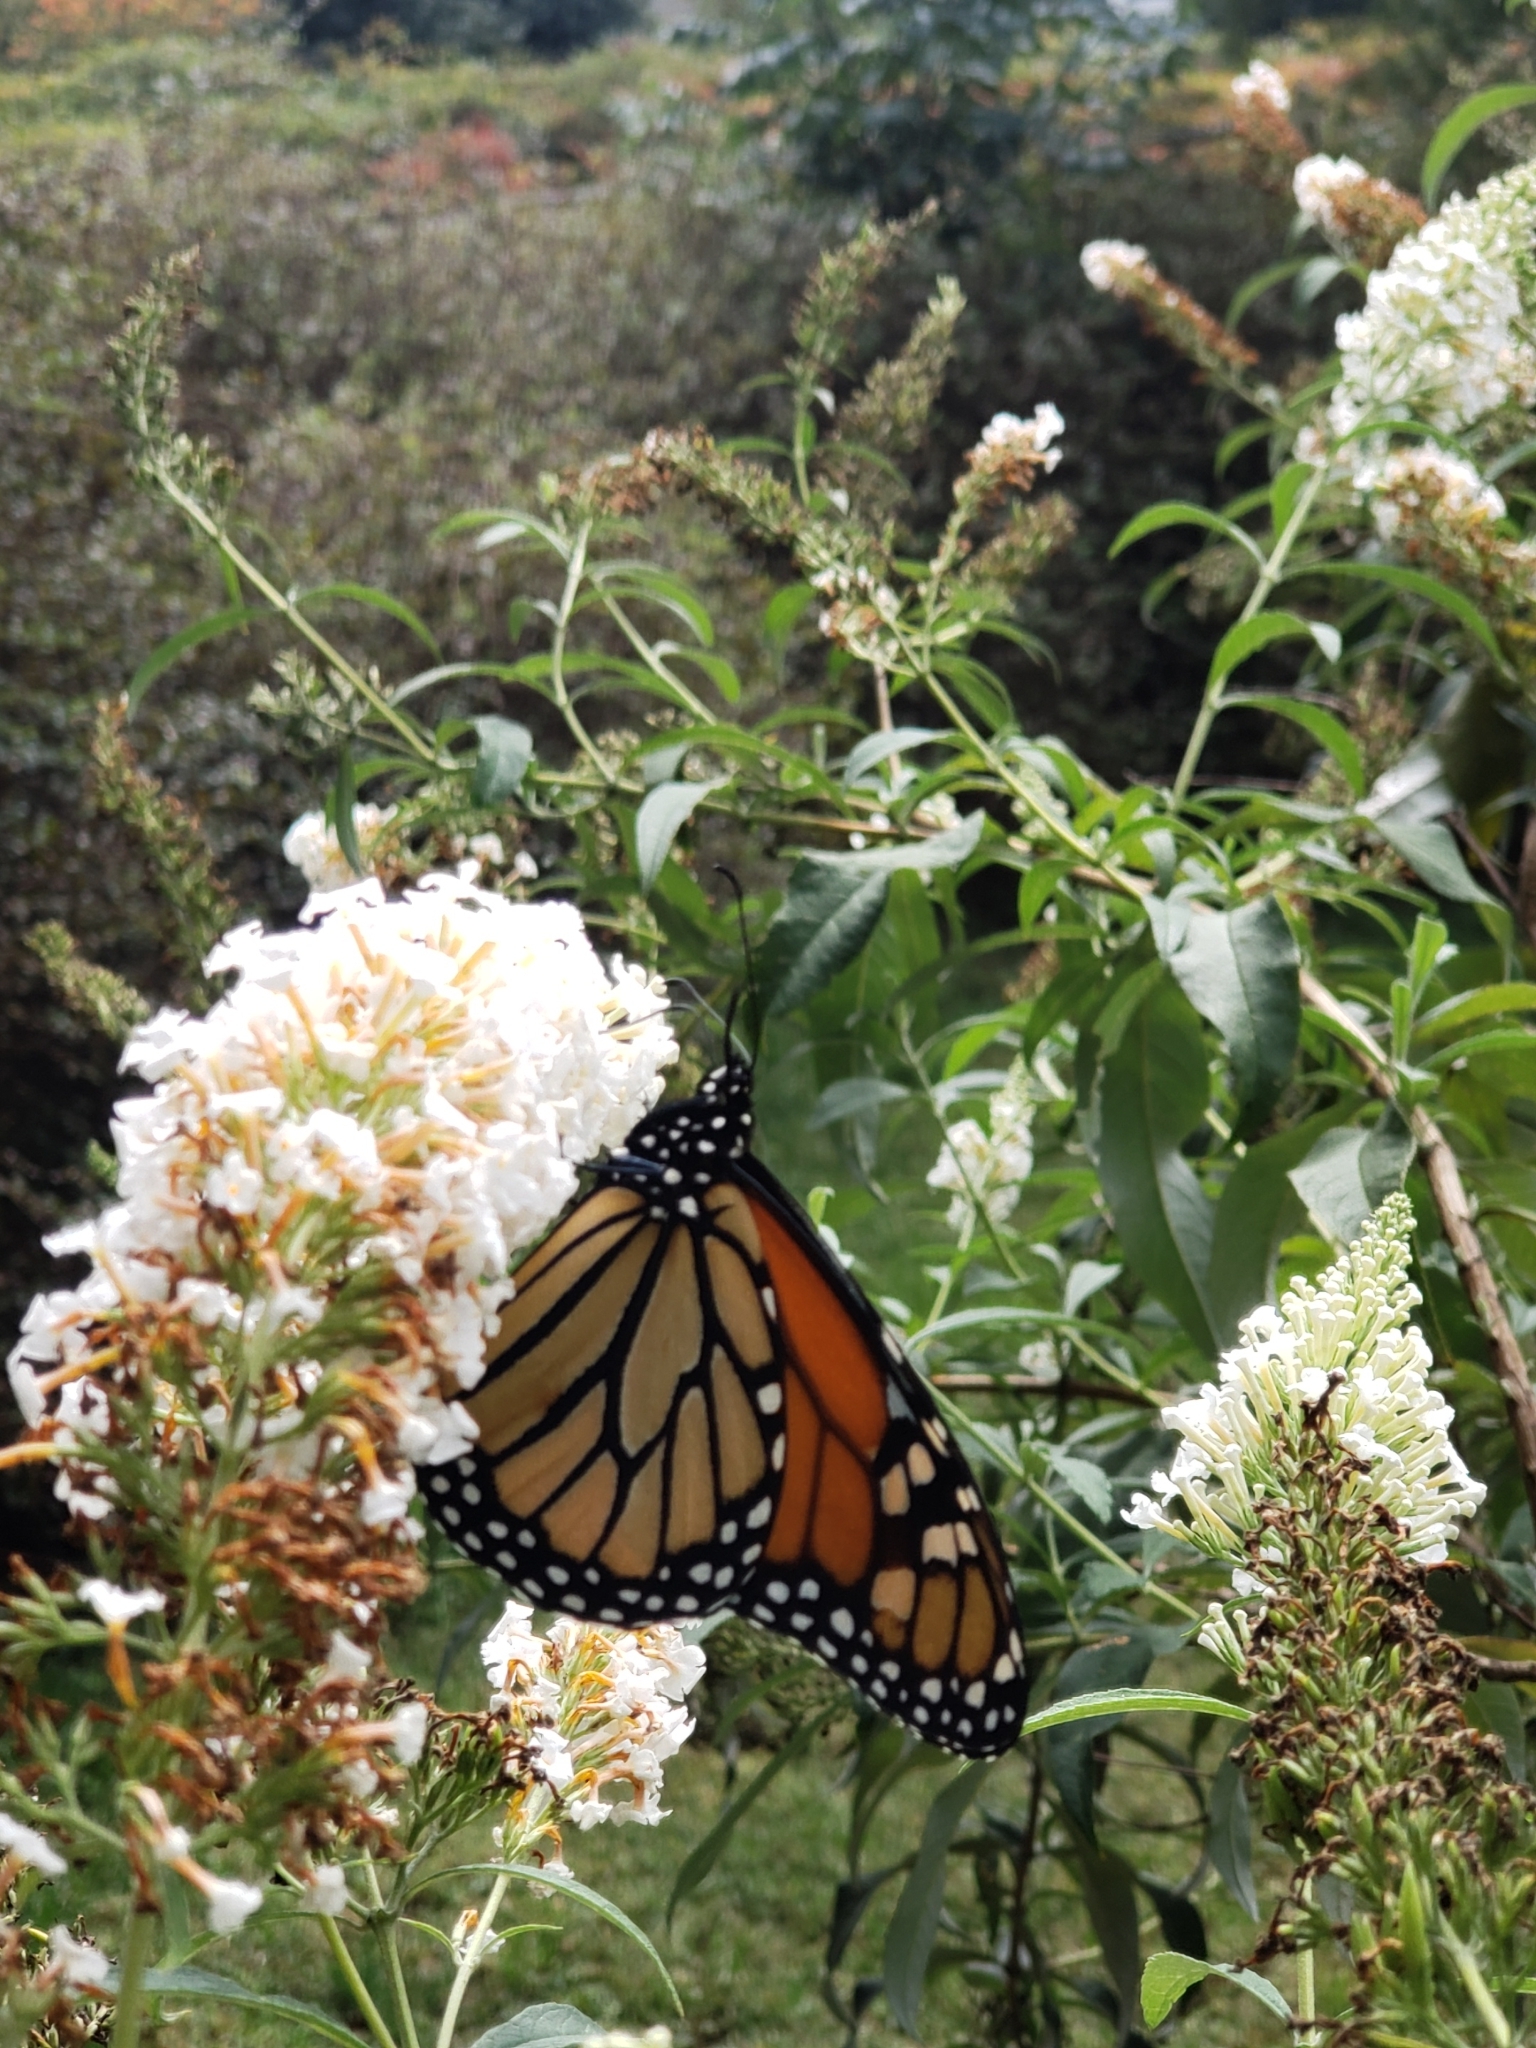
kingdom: Animalia
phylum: Arthropoda
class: Insecta
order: Lepidoptera
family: Nymphalidae
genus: Danaus
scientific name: Danaus plexippus
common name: Monarch
